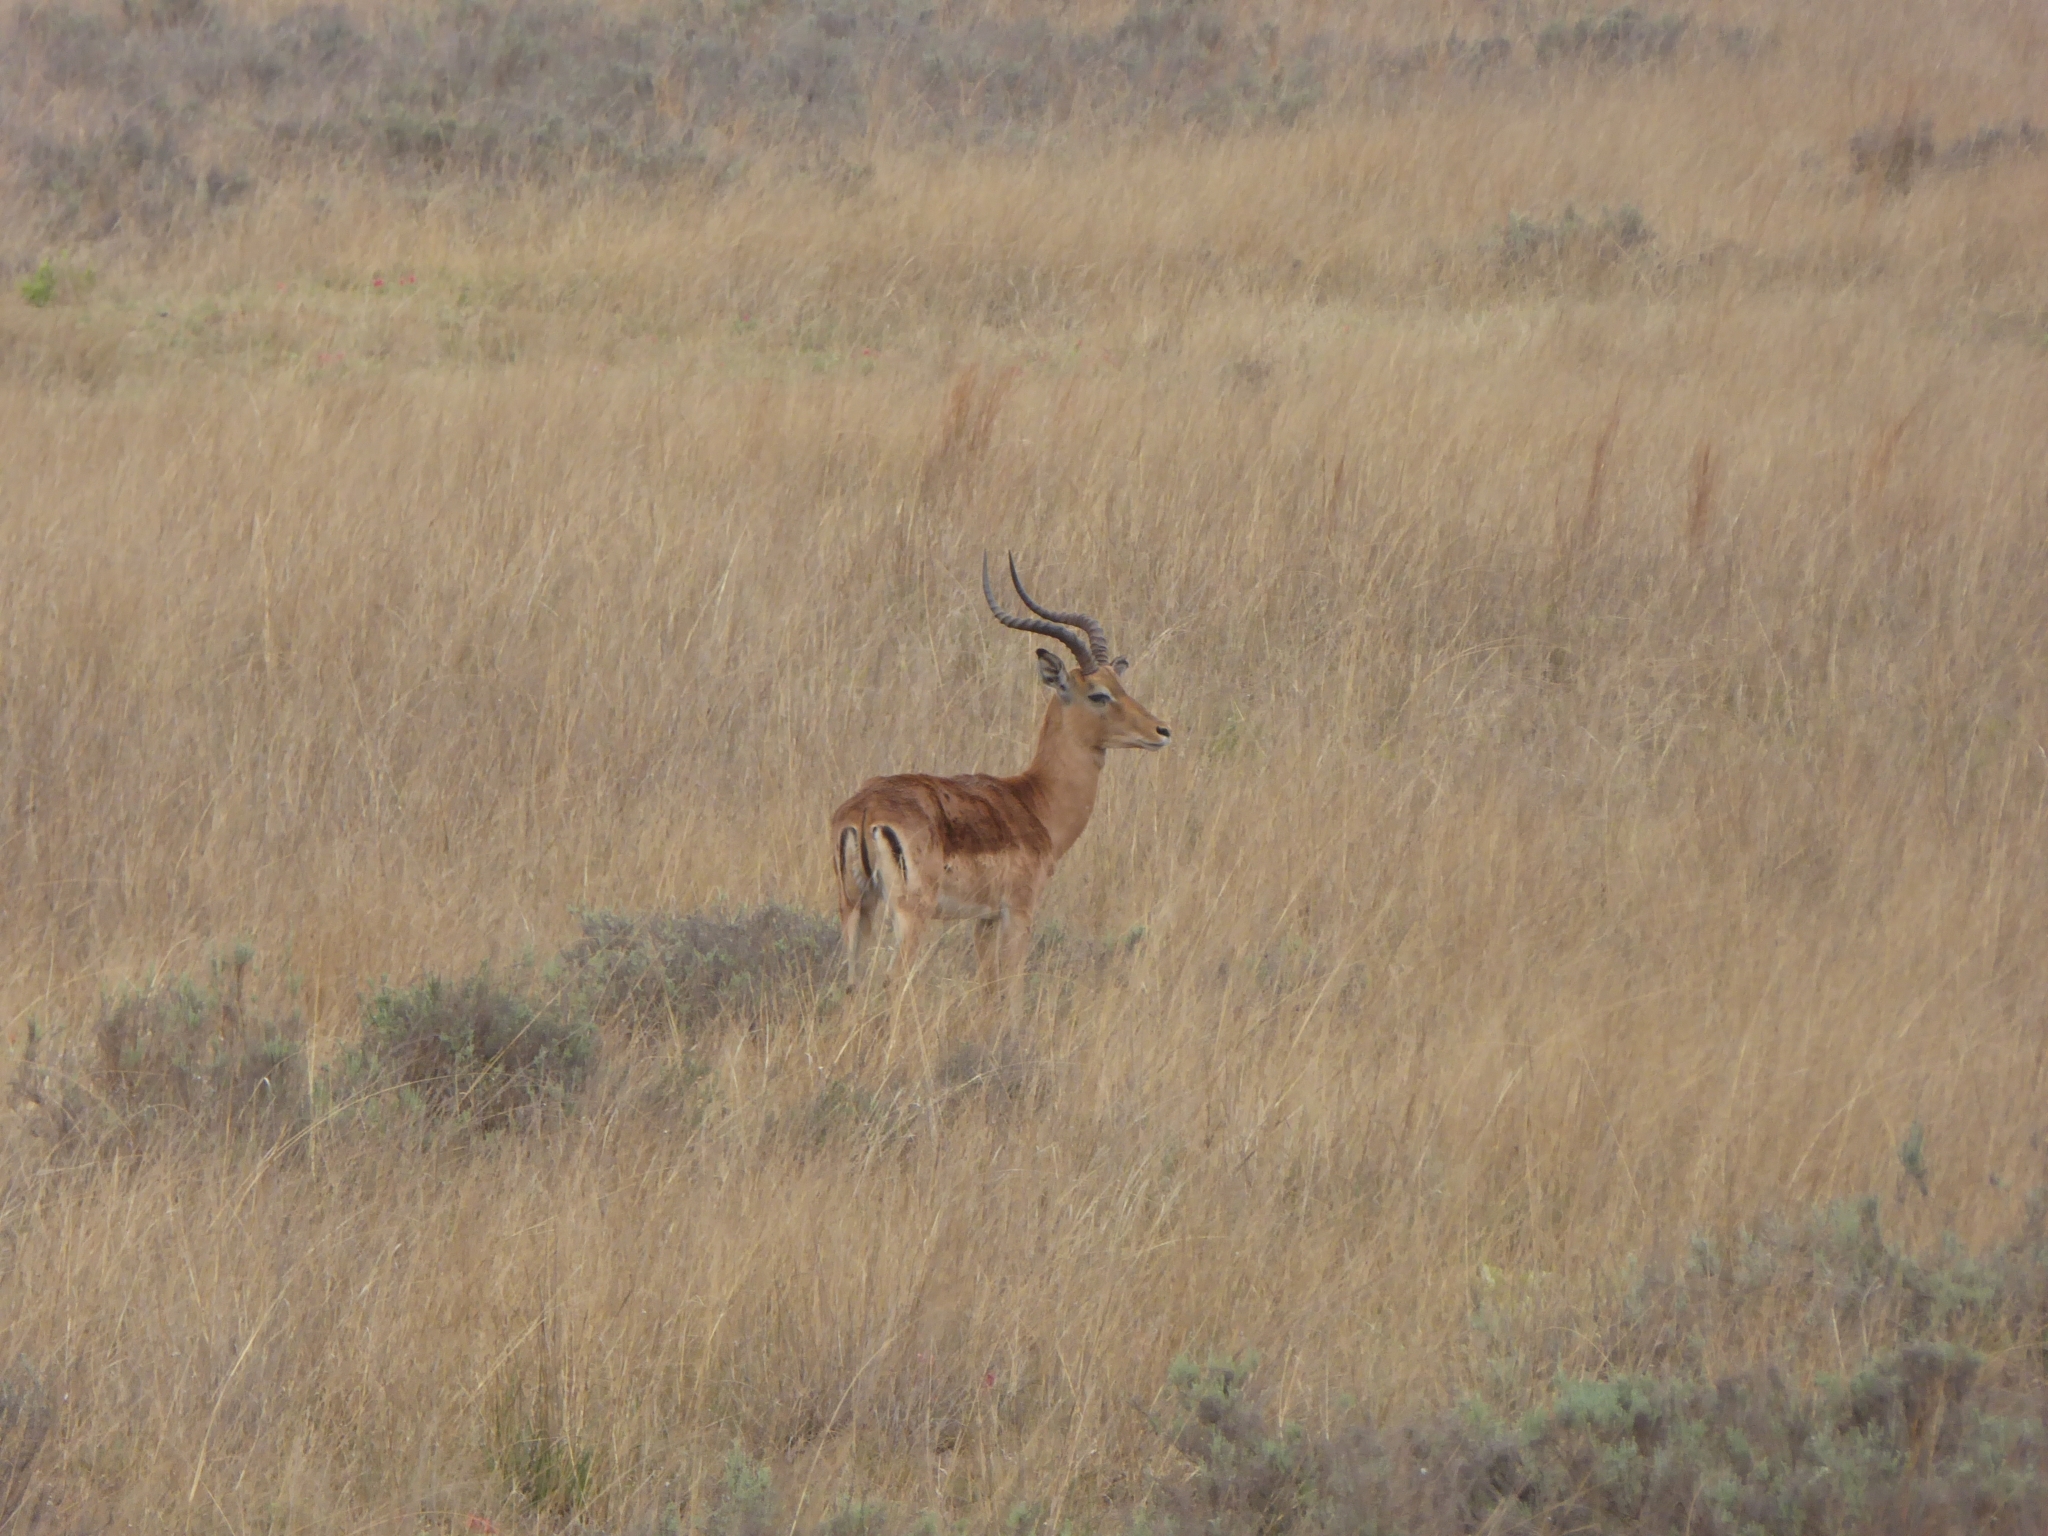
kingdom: Animalia
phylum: Chordata
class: Mammalia
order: Artiodactyla
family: Bovidae
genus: Aepyceros
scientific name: Aepyceros melampus
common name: Impala
